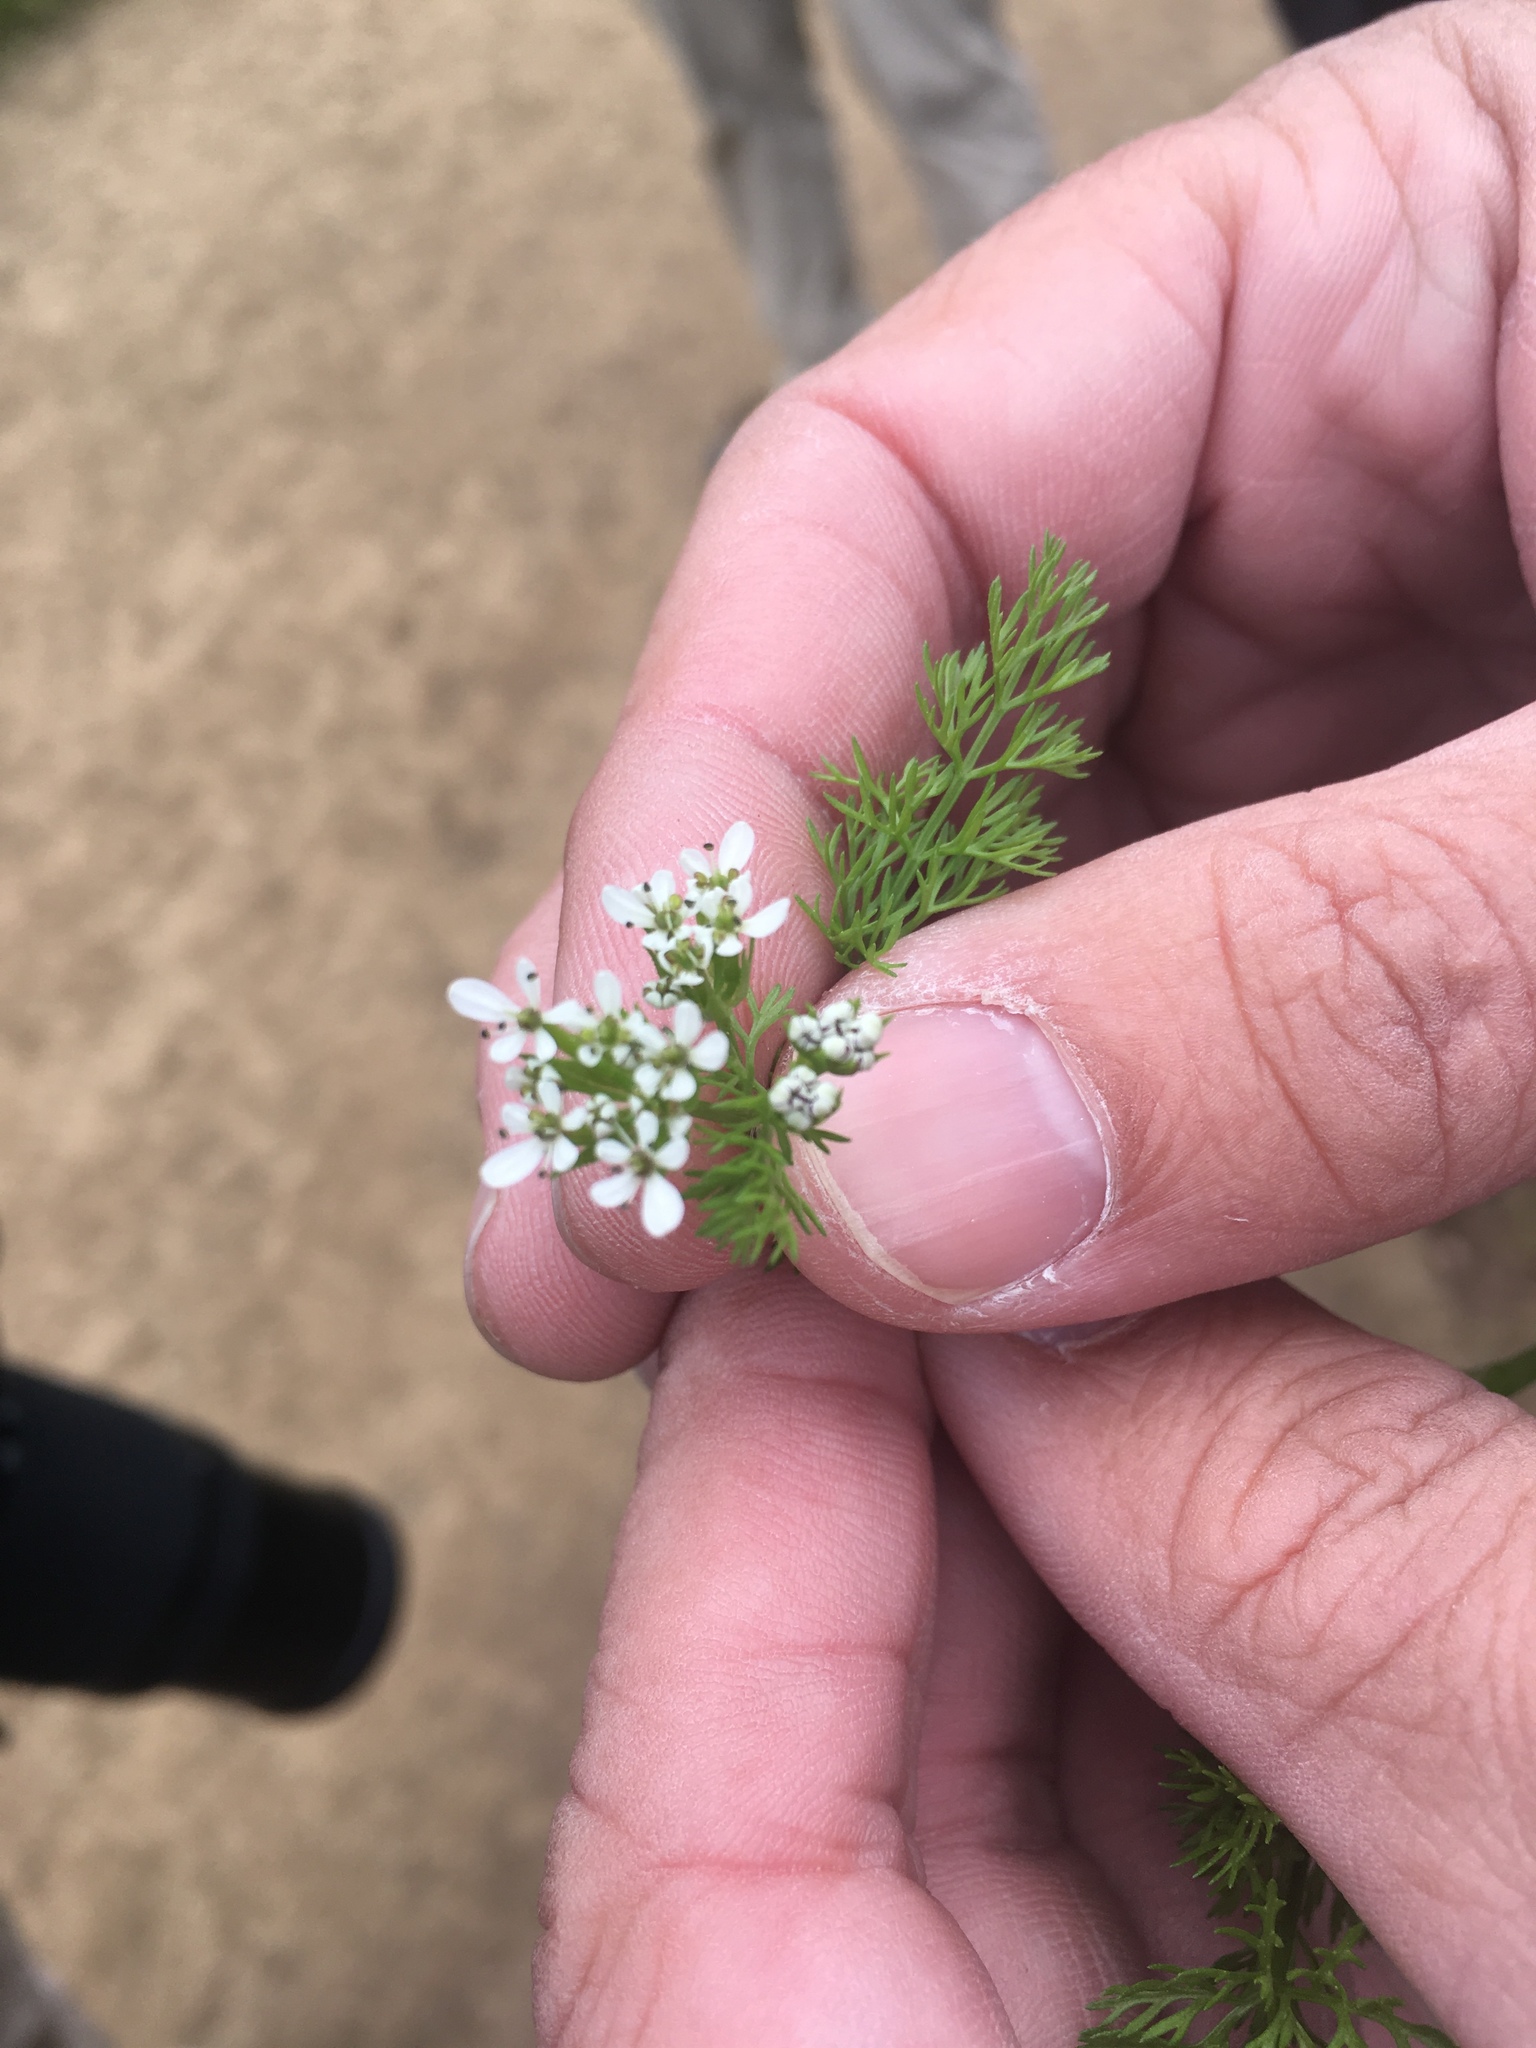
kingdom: Plantae
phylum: Tracheophyta
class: Magnoliopsida
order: Apiales
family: Apiaceae
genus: Scandix
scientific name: Scandix pecten-veneris
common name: Shepherd's-needle
